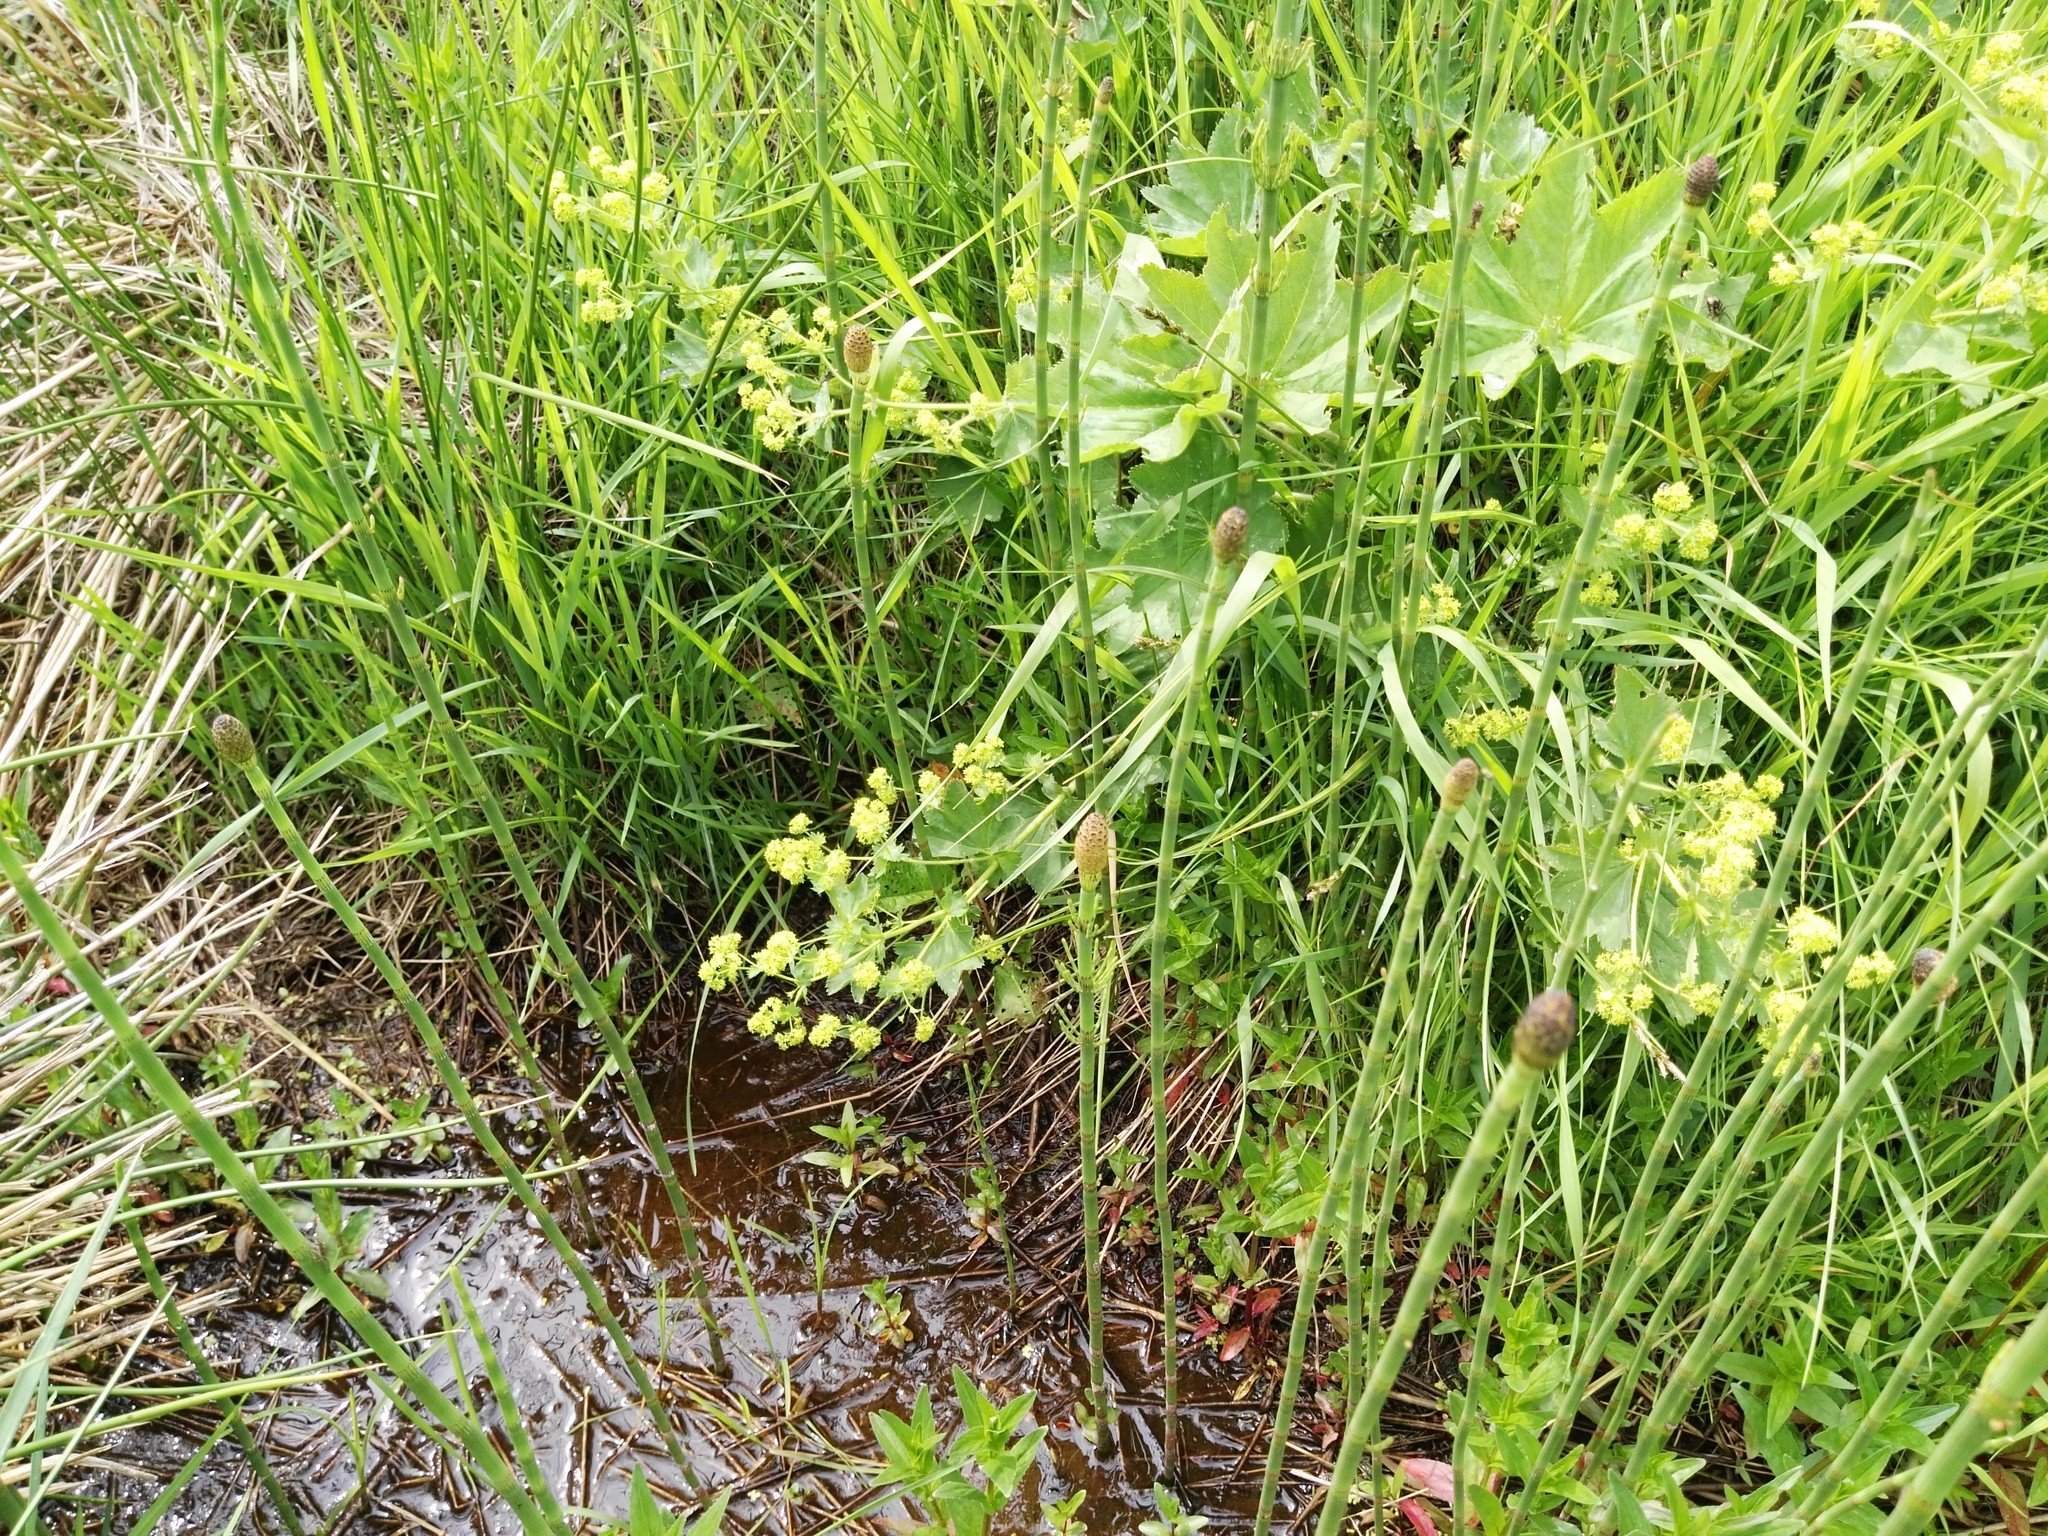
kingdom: Plantae
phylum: Tracheophyta
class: Polypodiopsida
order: Equisetales
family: Equisetaceae
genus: Equisetum
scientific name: Equisetum fluviatile
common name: Water horsetail
